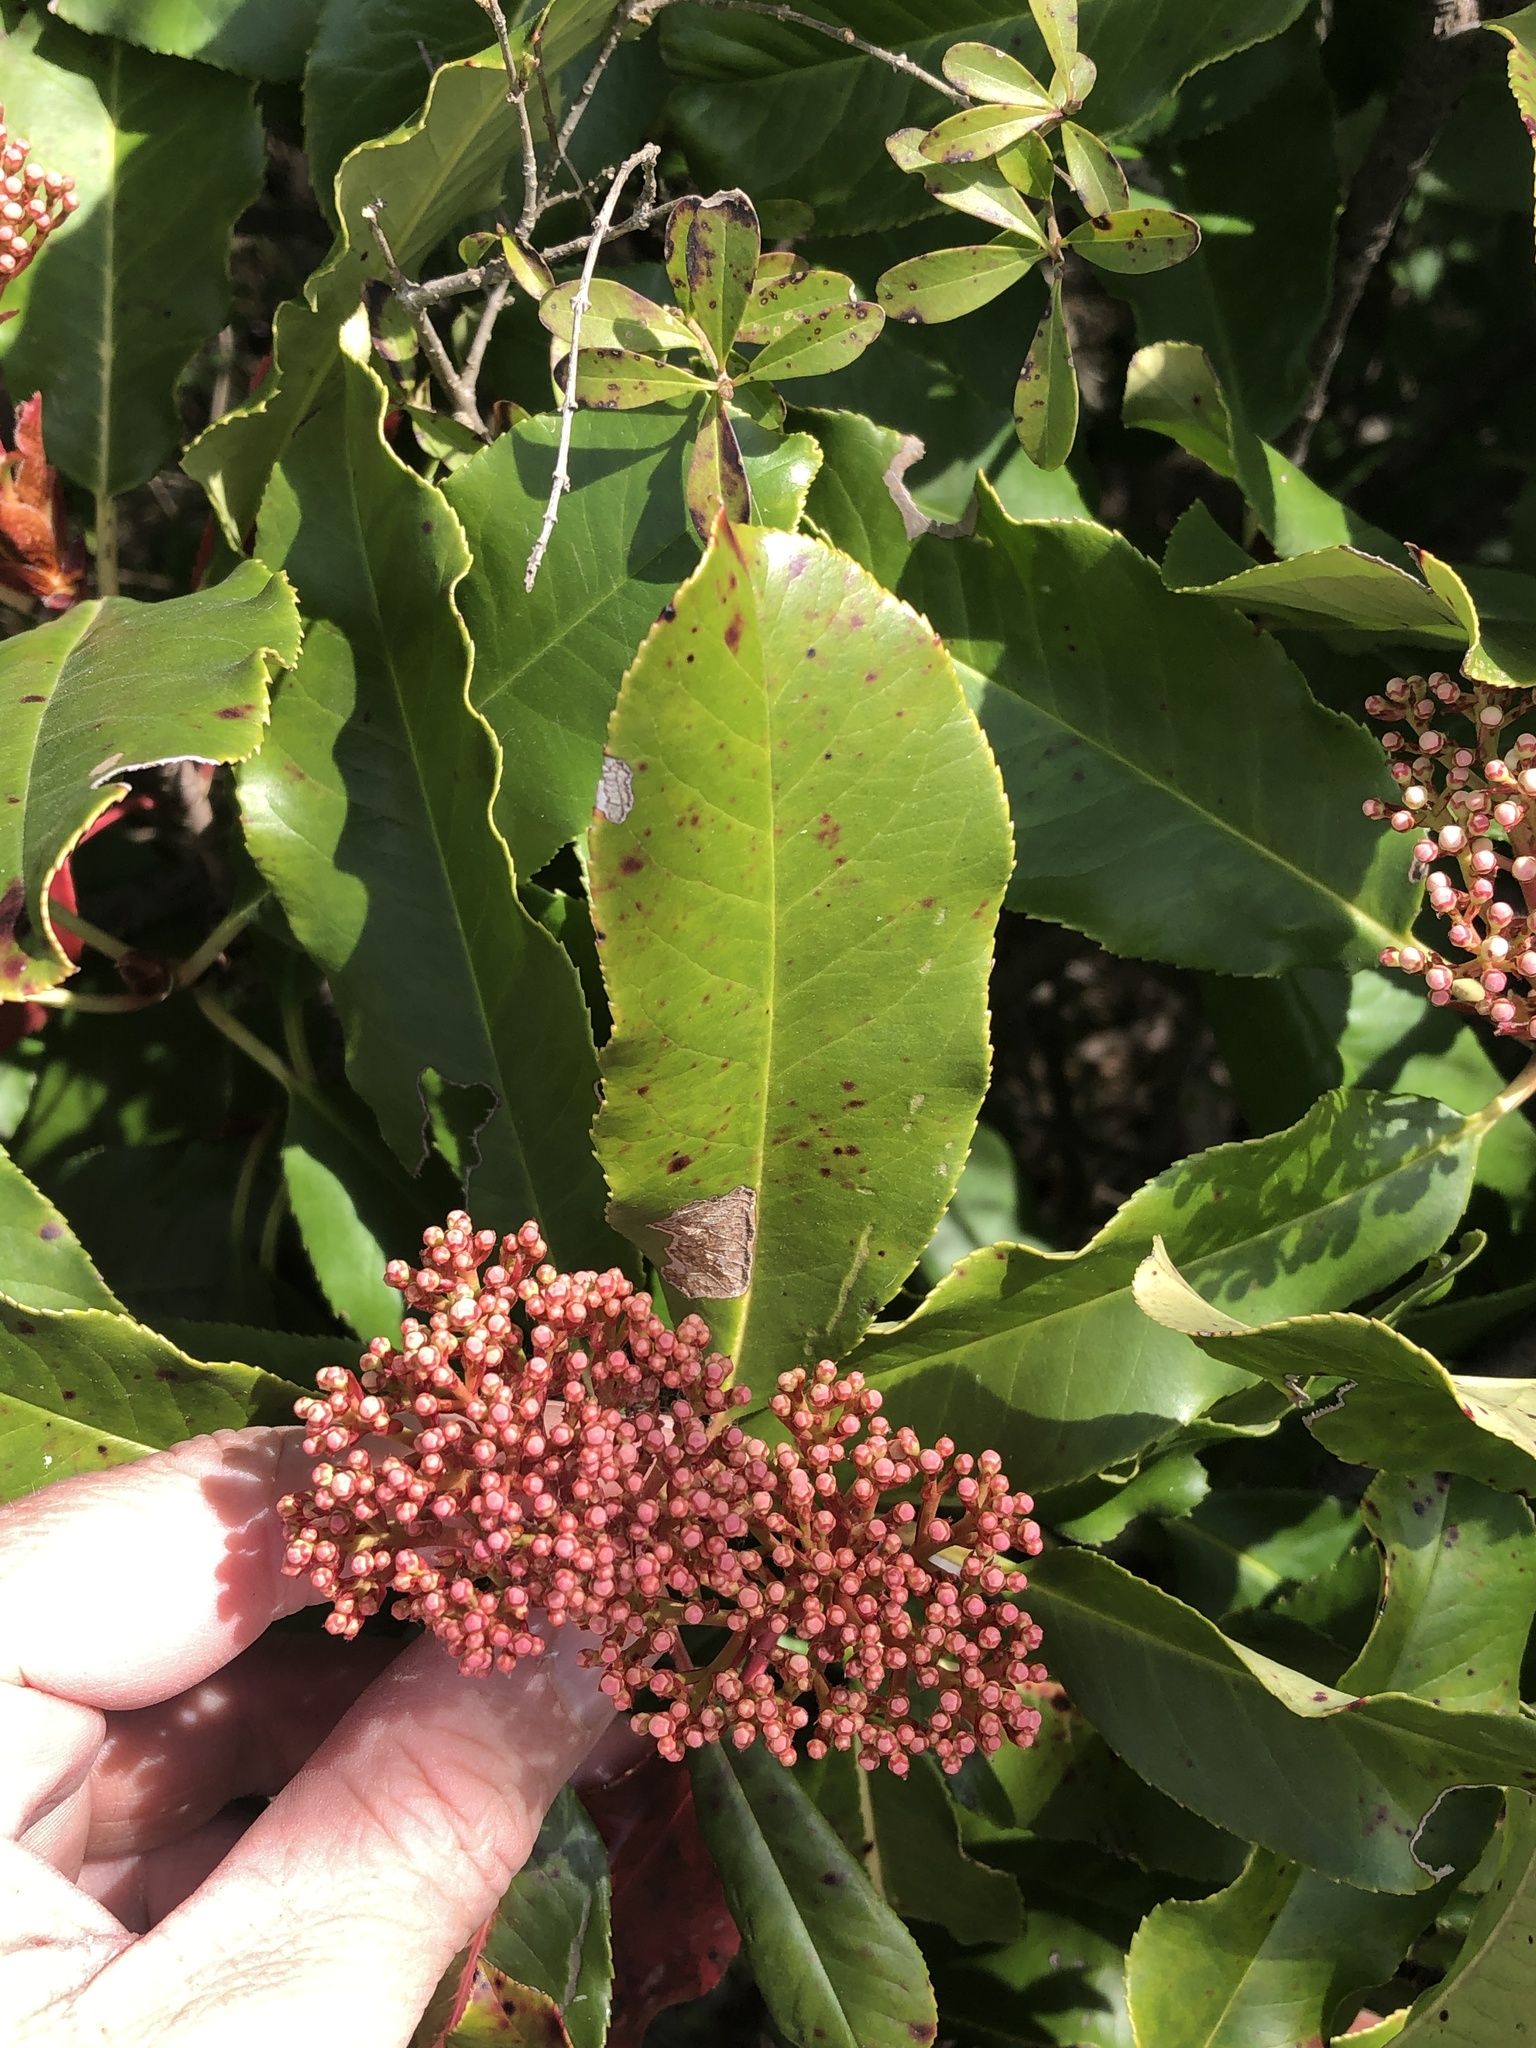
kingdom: Plantae
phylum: Tracheophyta
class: Magnoliopsida
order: Rosales
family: Rosaceae
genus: Photinia
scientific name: Photinia serratifolia
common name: Taiwanese photinia
